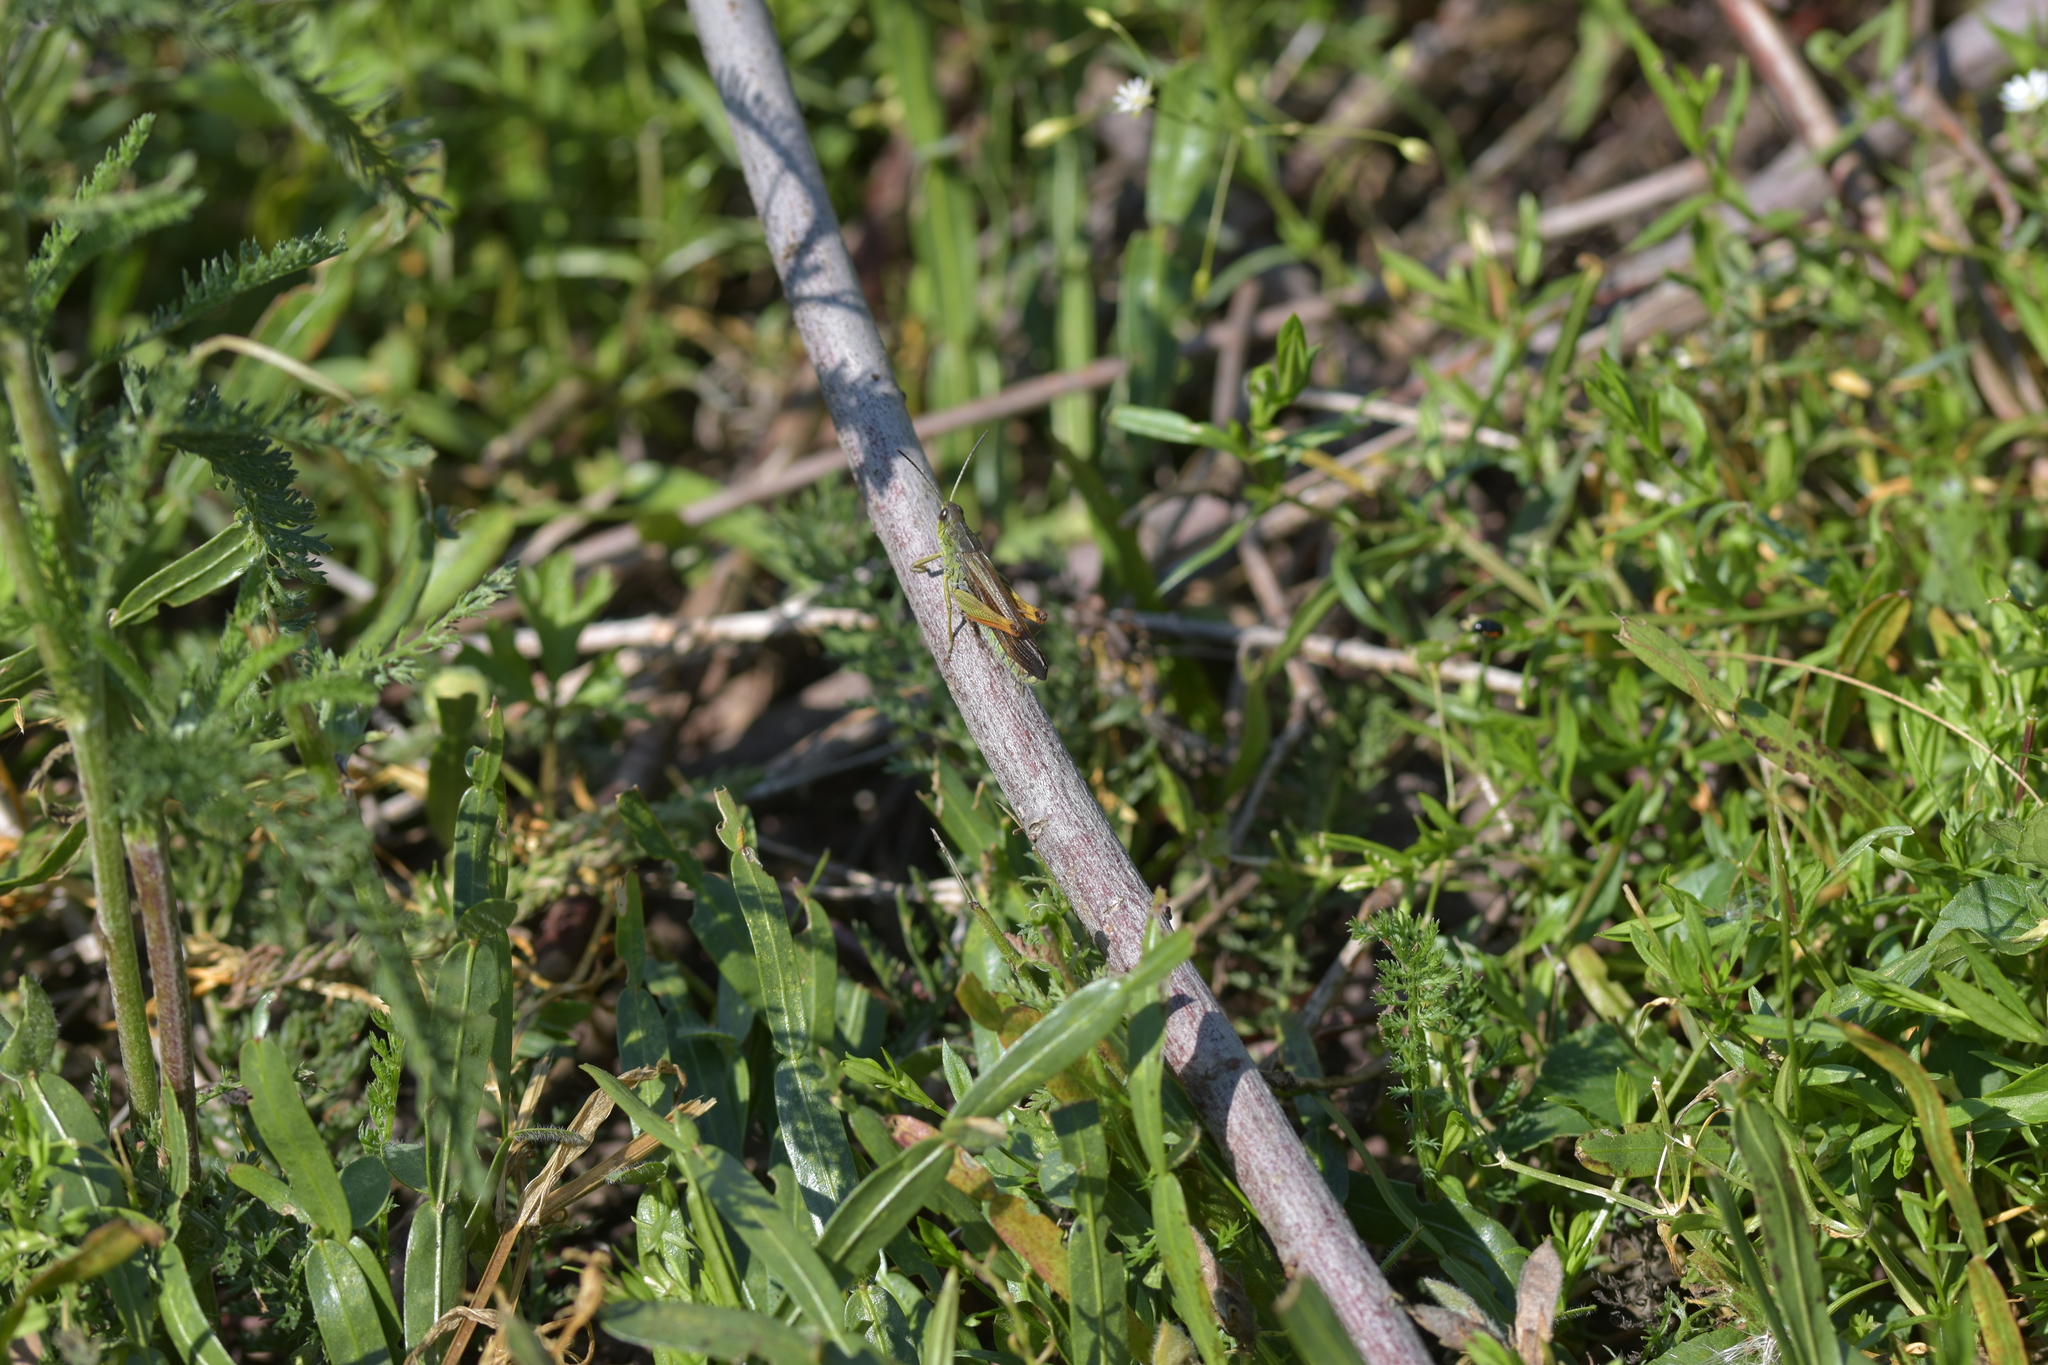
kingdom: Animalia
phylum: Arthropoda
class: Insecta
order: Orthoptera
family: Acrididae
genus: Stauroderus
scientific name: Stauroderus scalaris
